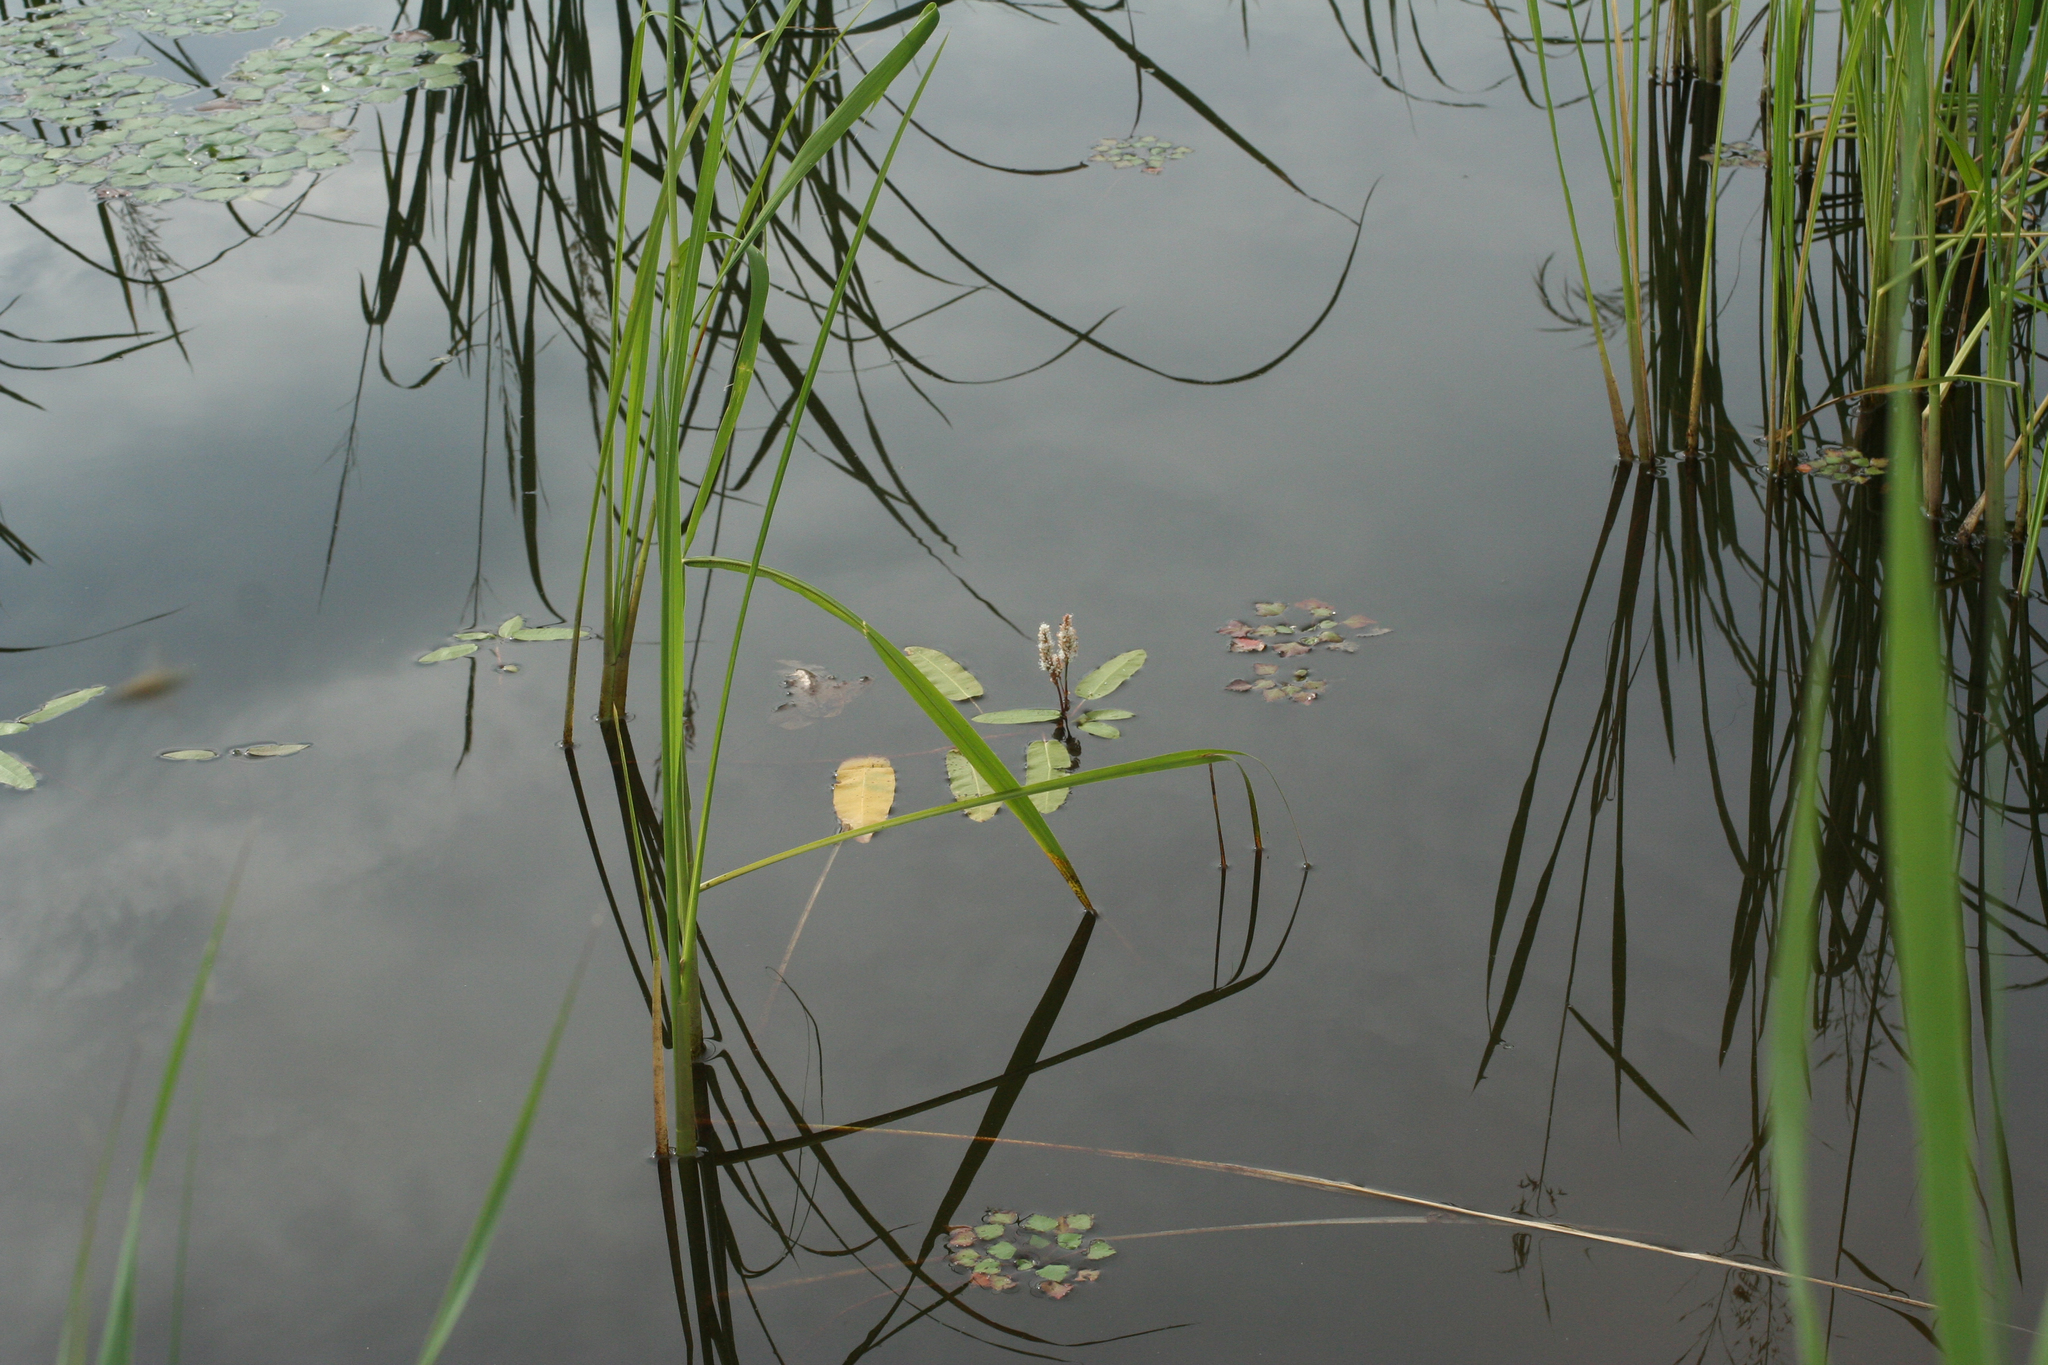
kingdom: Plantae
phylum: Tracheophyta
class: Magnoliopsida
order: Caryophyllales
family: Polygonaceae
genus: Persicaria
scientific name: Persicaria amphibia
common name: Amphibious bistort
